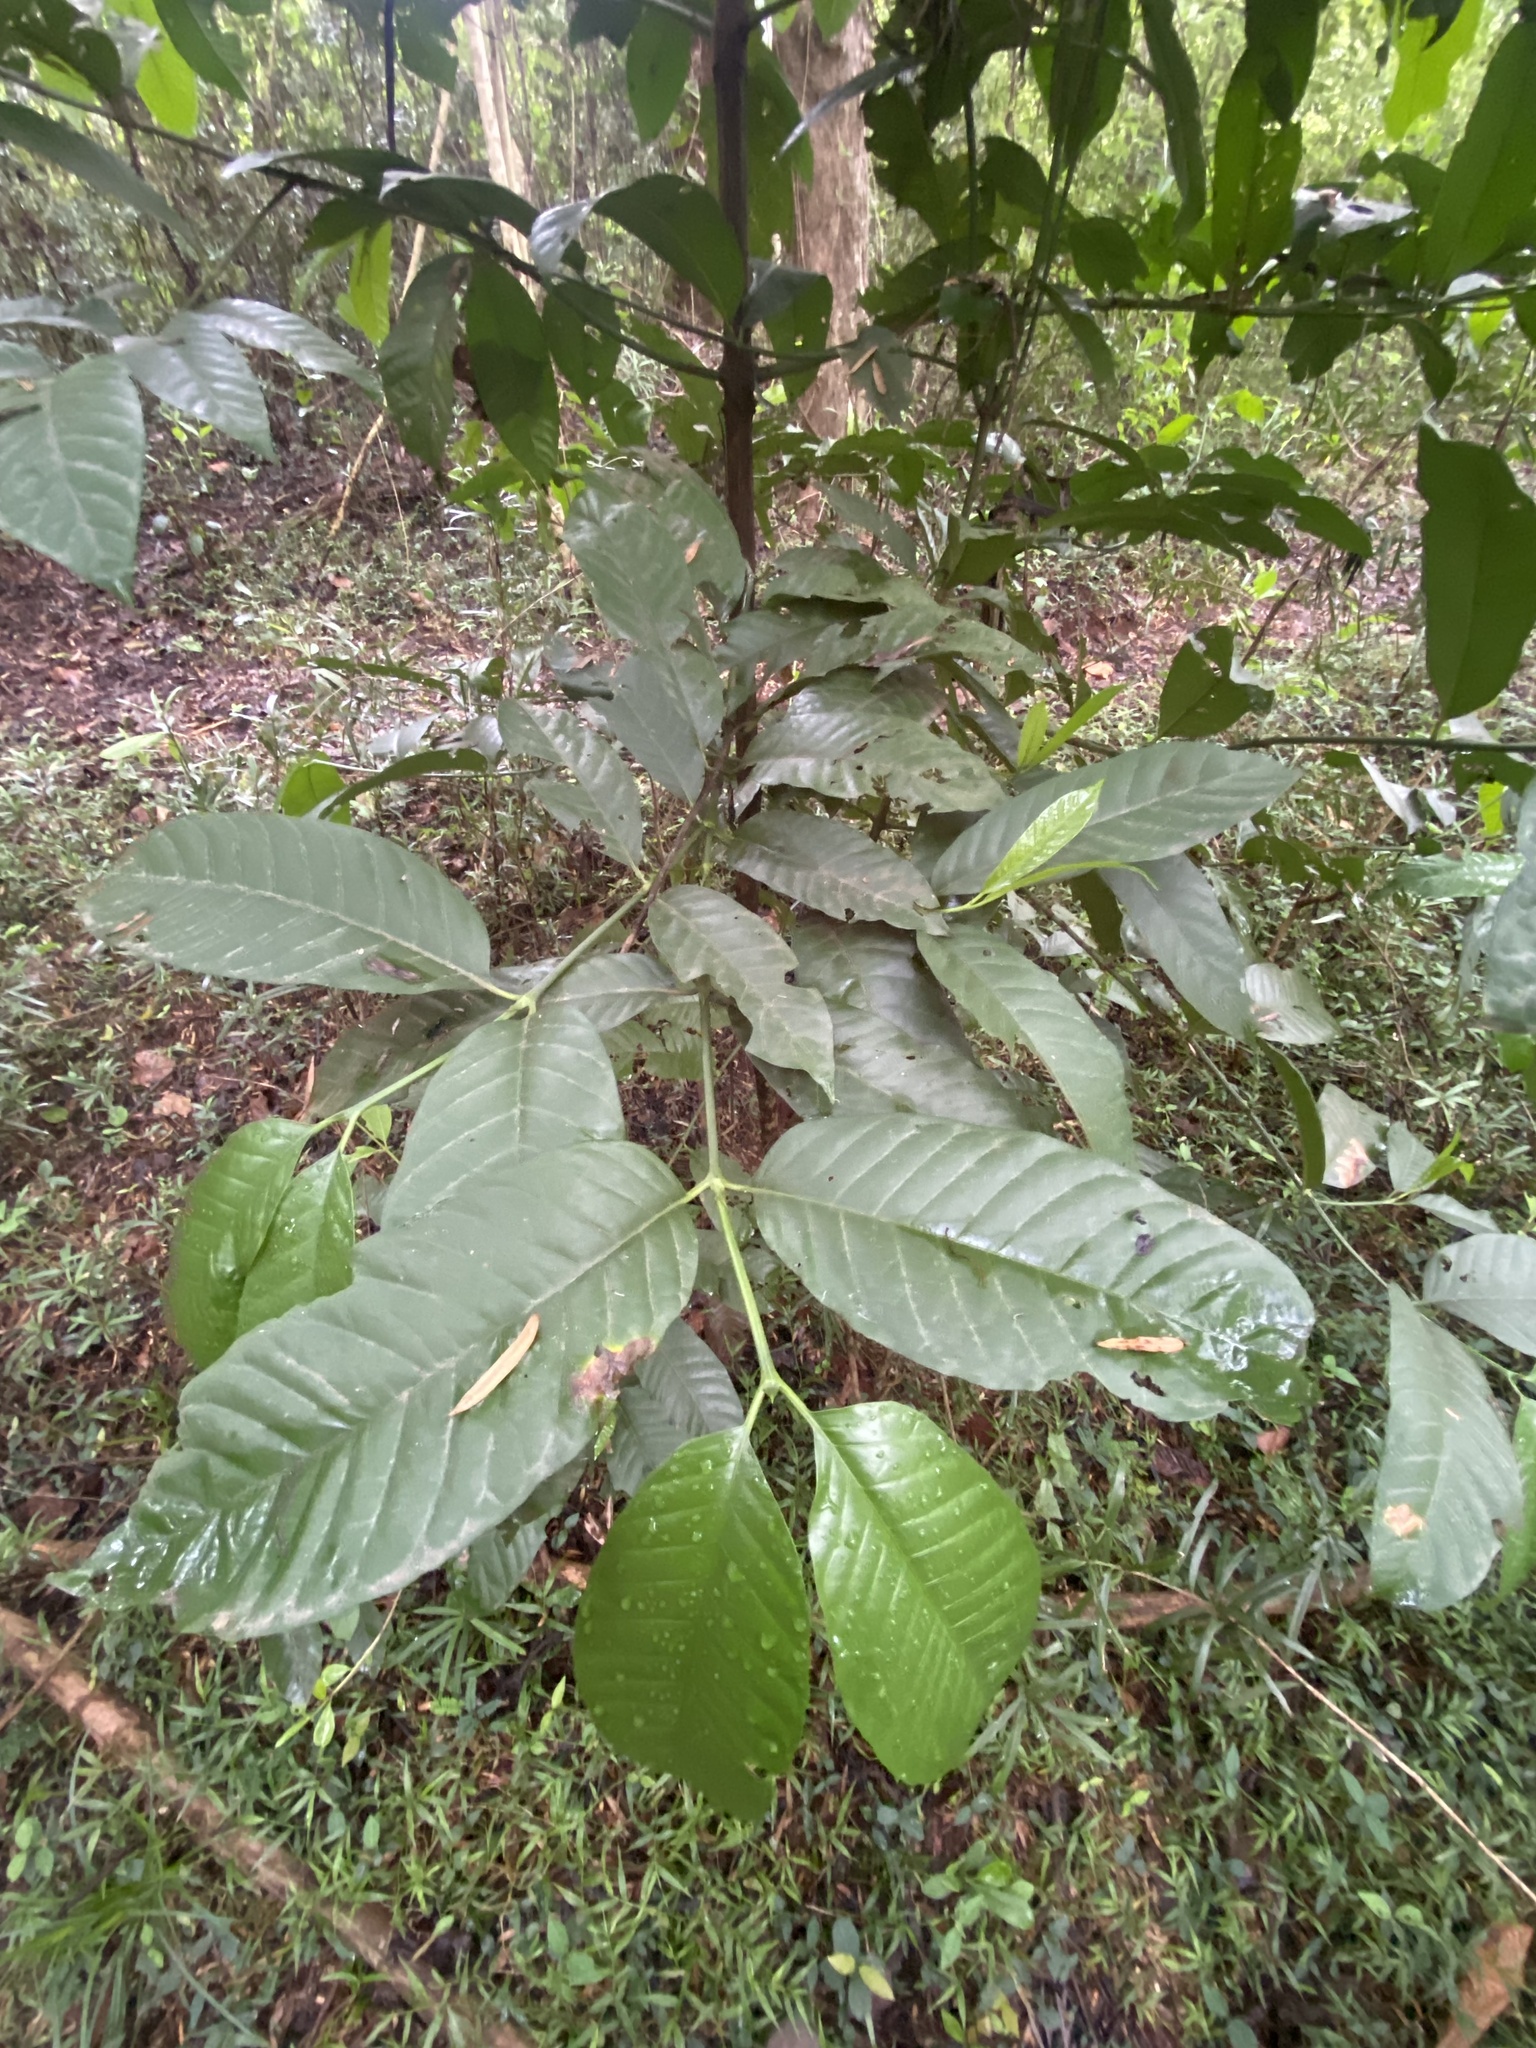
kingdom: Plantae
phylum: Tracheophyta
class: Magnoliopsida
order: Gentianales
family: Rubiaceae
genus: Oxyanthus
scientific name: Oxyanthus speciosus
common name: Whipstick loquat
